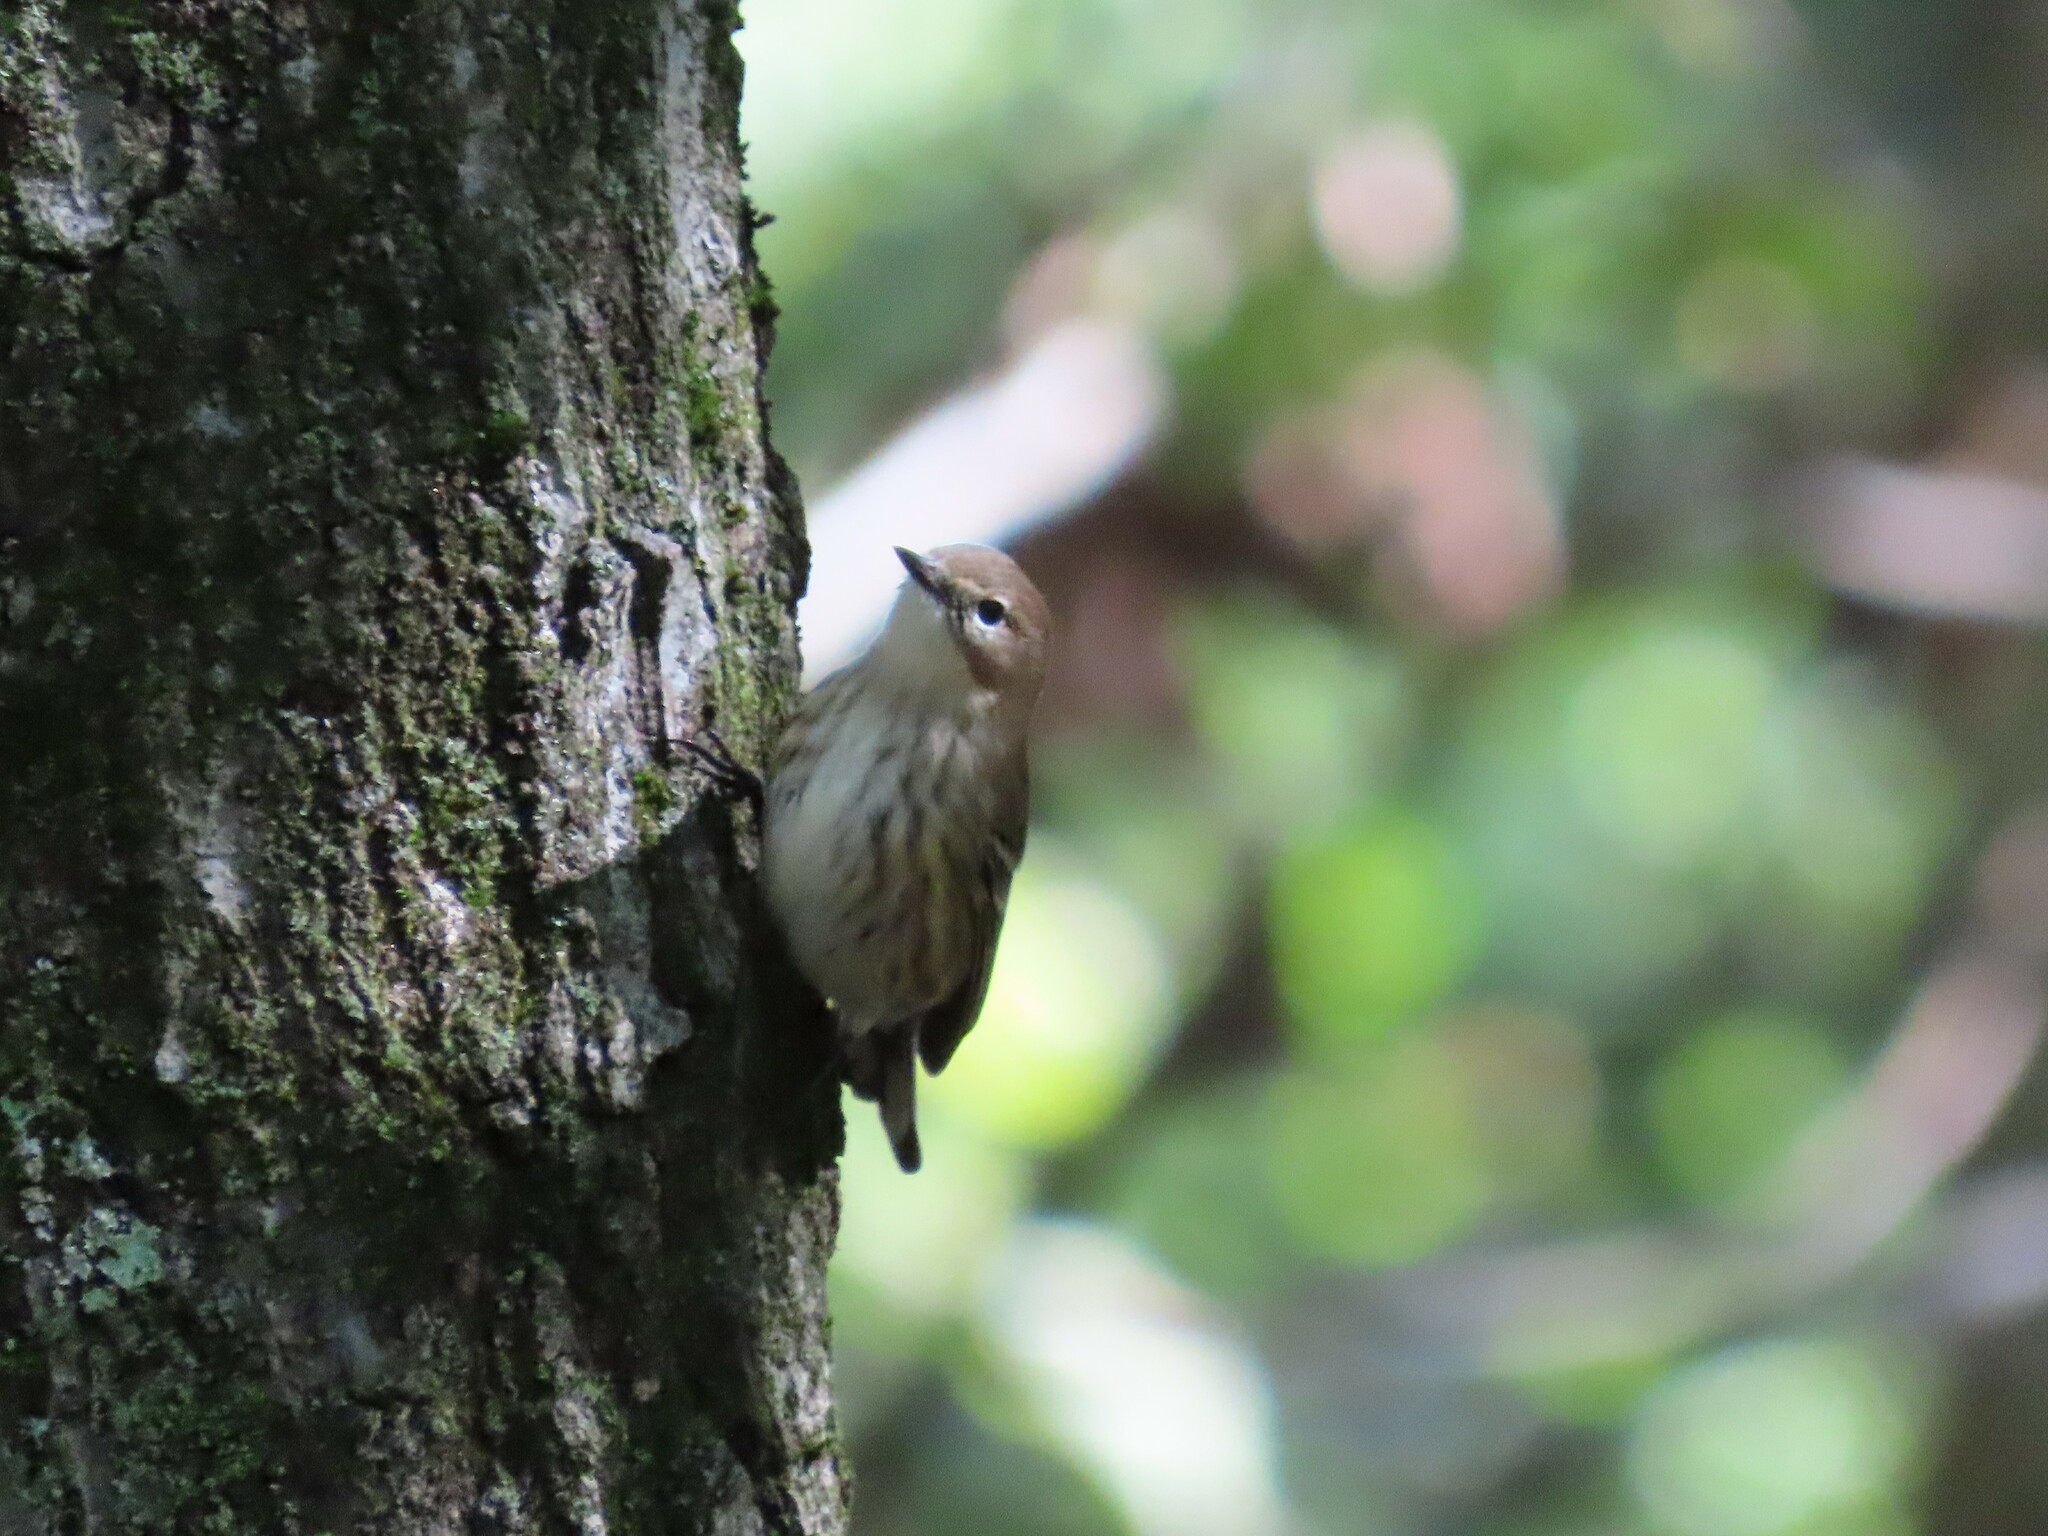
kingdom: Animalia
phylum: Chordata
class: Aves
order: Passeriformes
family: Parulidae
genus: Setophaga
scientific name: Setophaga coronata
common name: Myrtle warbler
